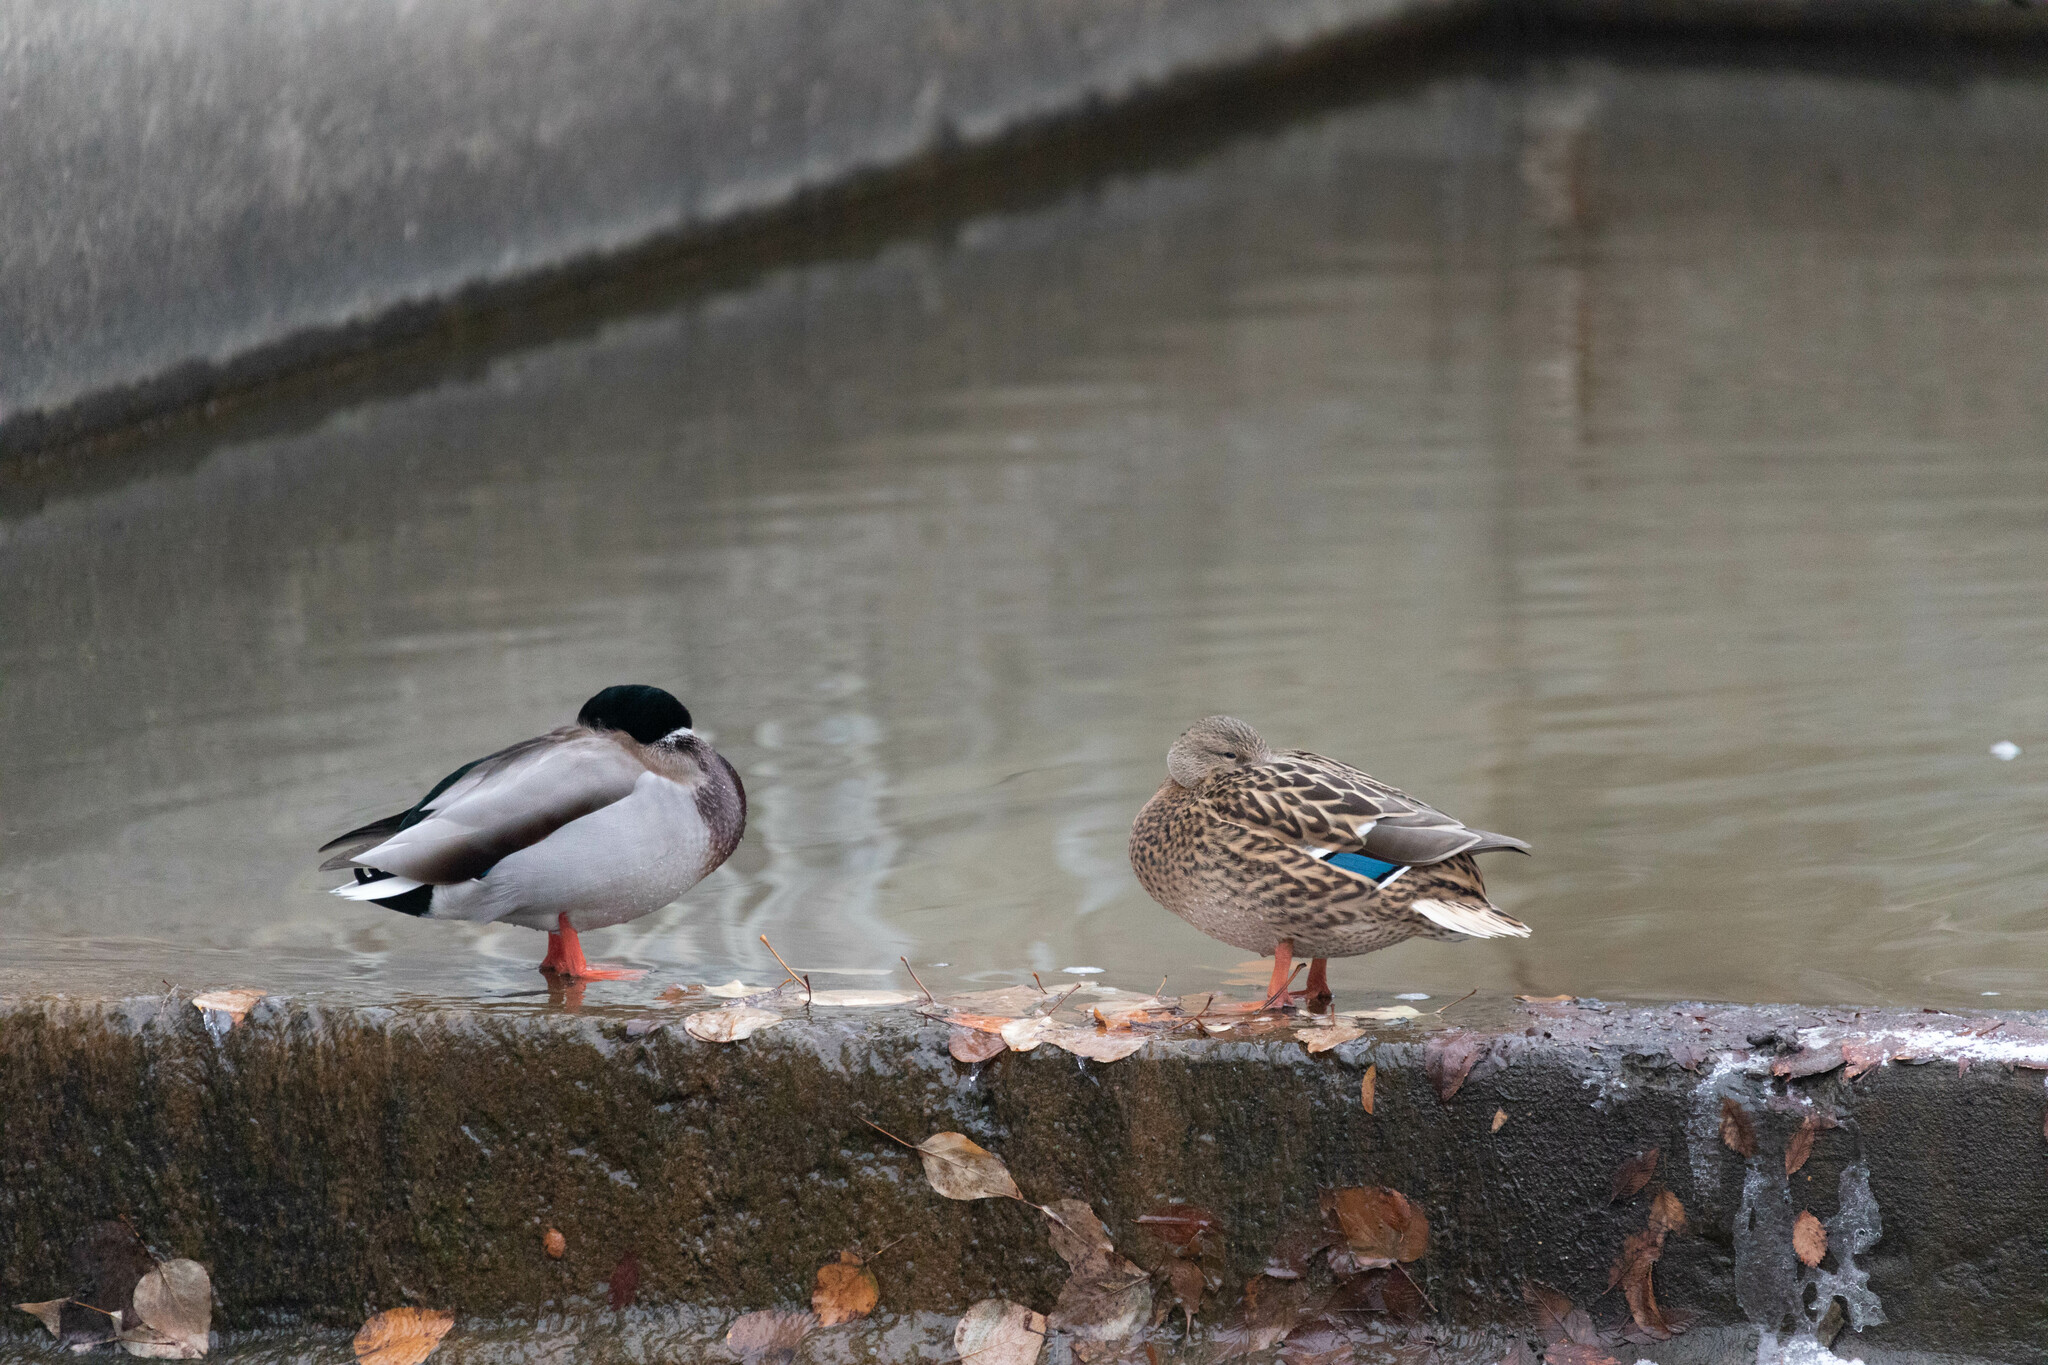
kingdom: Animalia
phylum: Chordata
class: Aves
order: Anseriformes
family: Anatidae
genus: Anas
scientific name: Anas platyrhynchos
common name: Mallard
